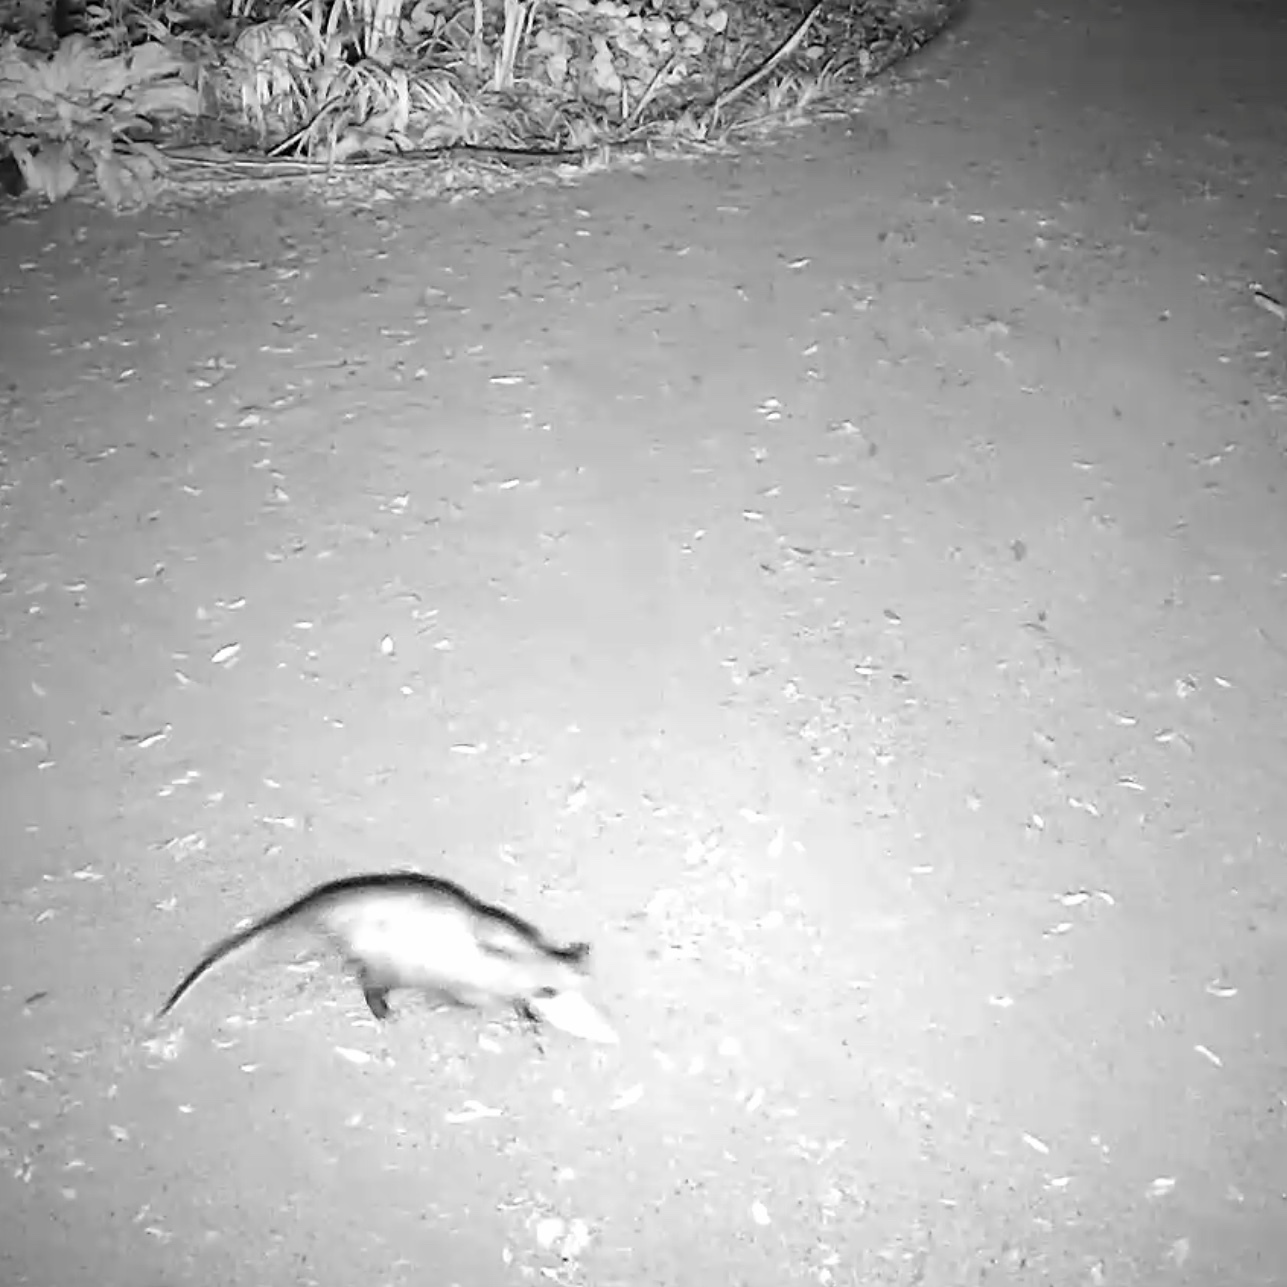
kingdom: Animalia
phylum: Chordata
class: Mammalia
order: Didelphimorphia
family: Didelphidae
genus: Didelphis
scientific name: Didelphis virginiana
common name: Virginia opossum
